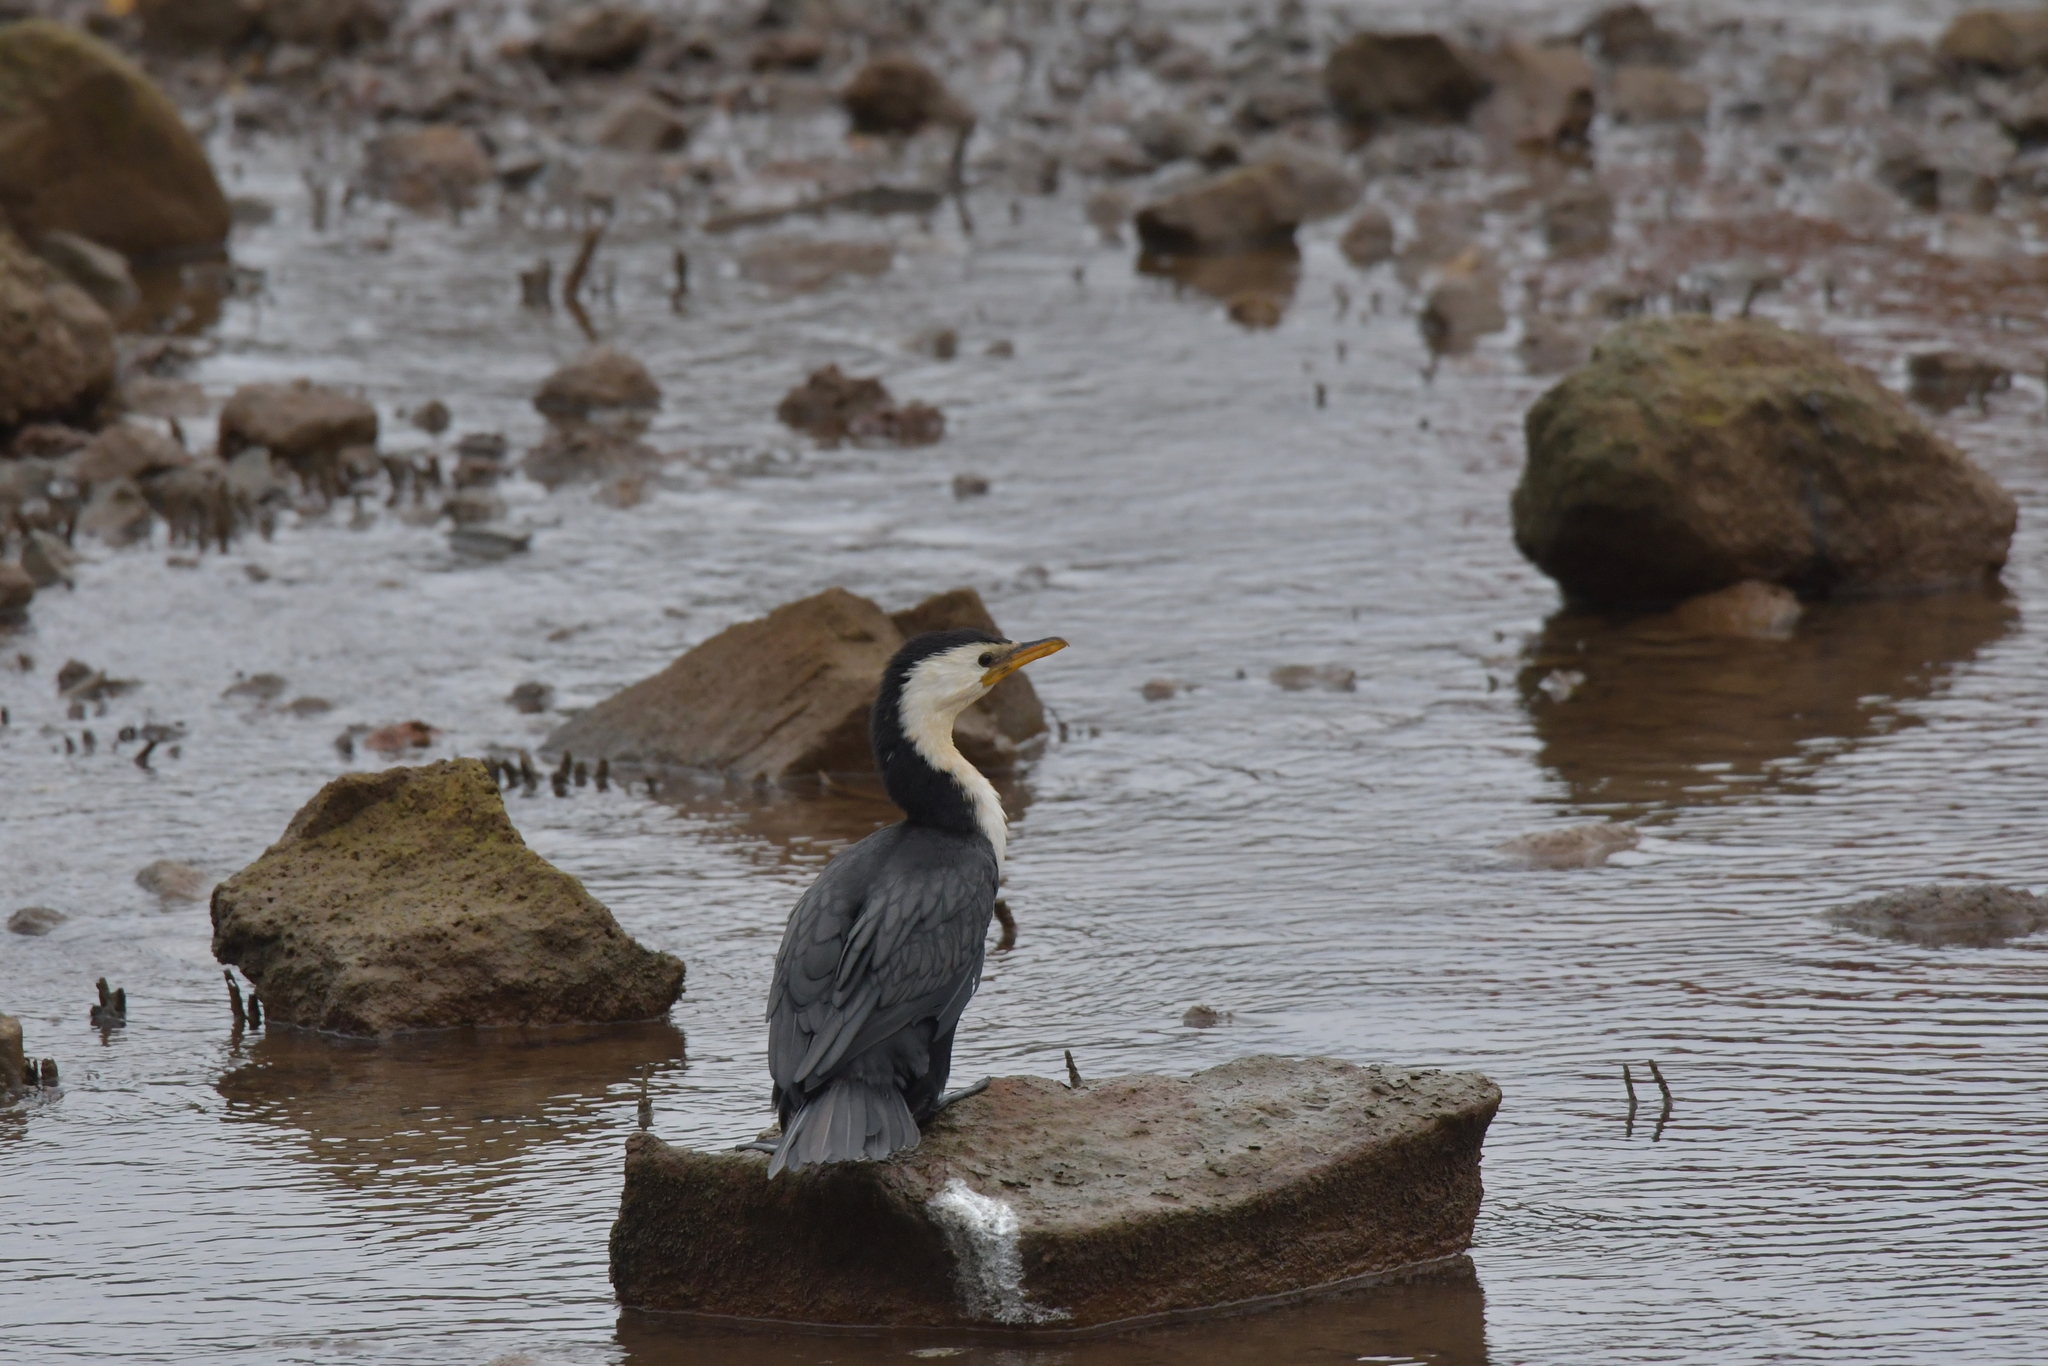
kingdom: Animalia
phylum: Chordata
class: Aves
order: Suliformes
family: Phalacrocoracidae
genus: Microcarbo
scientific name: Microcarbo melanoleucos
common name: Little pied cormorant
